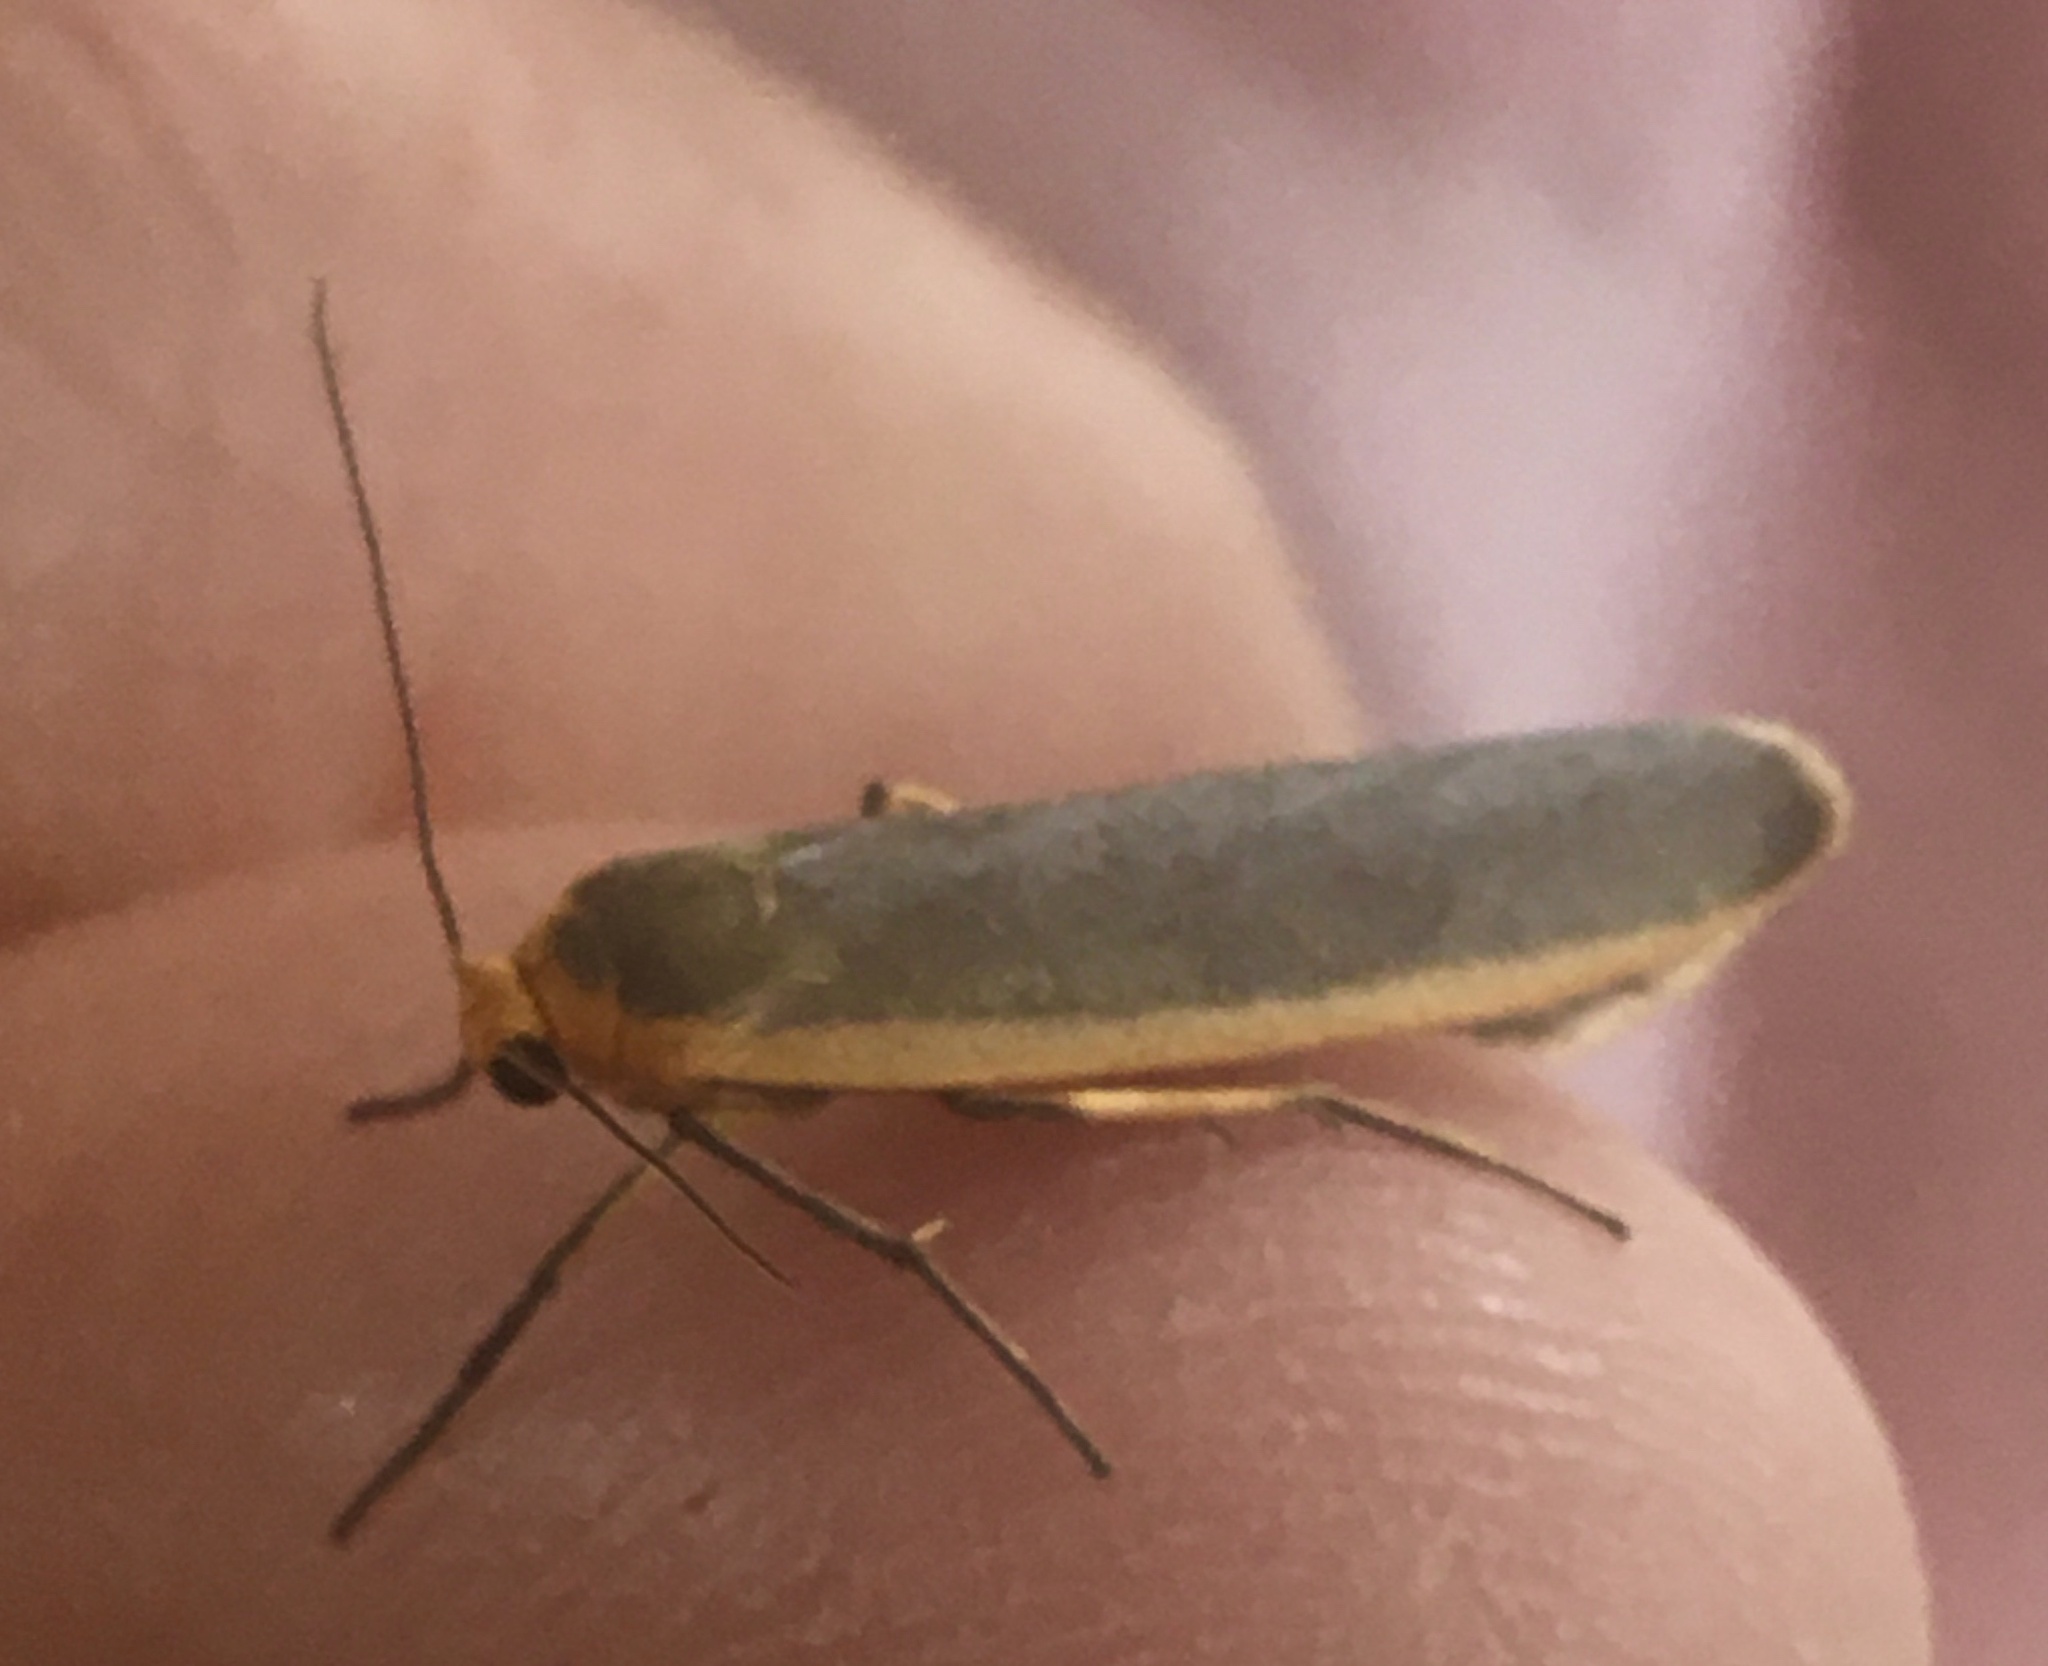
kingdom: Animalia
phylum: Arthropoda
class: Insecta
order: Lepidoptera
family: Erebidae
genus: Nyea
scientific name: Nyea lurideola
